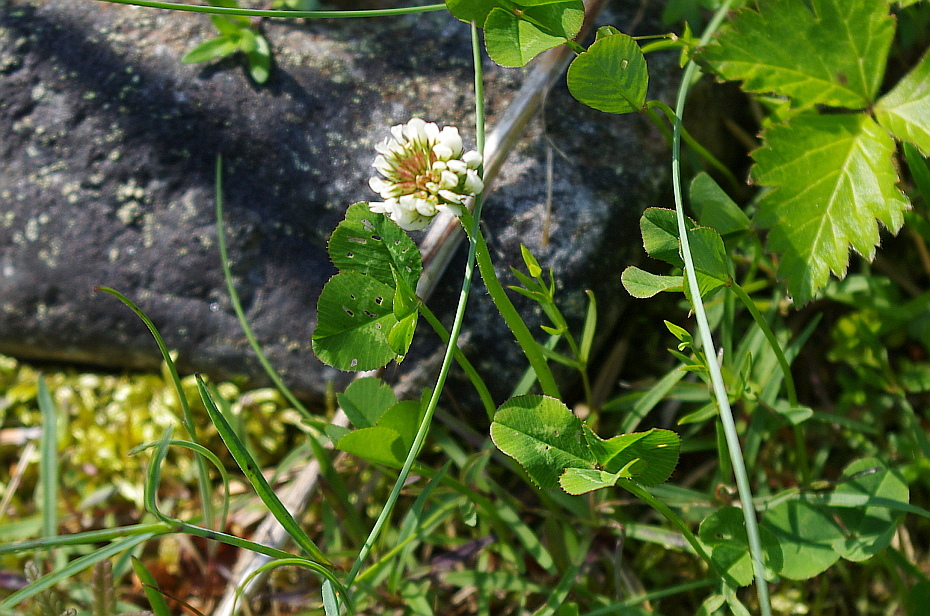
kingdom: Plantae
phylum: Tracheophyta
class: Magnoliopsida
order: Fabales
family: Fabaceae
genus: Trifolium
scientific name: Trifolium repens
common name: White clover
